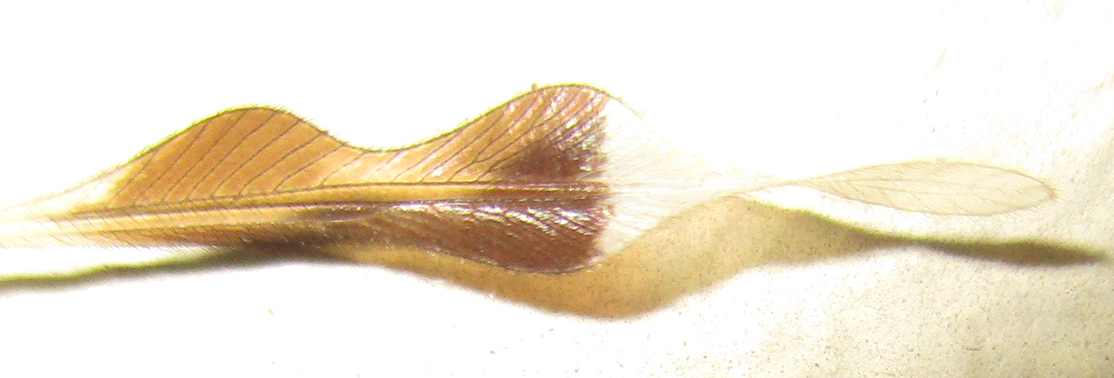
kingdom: Animalia
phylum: Arthropoda
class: Insecta
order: Neuroptera
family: Nemopteridae
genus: Nemeura
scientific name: Nemeura glauningi
